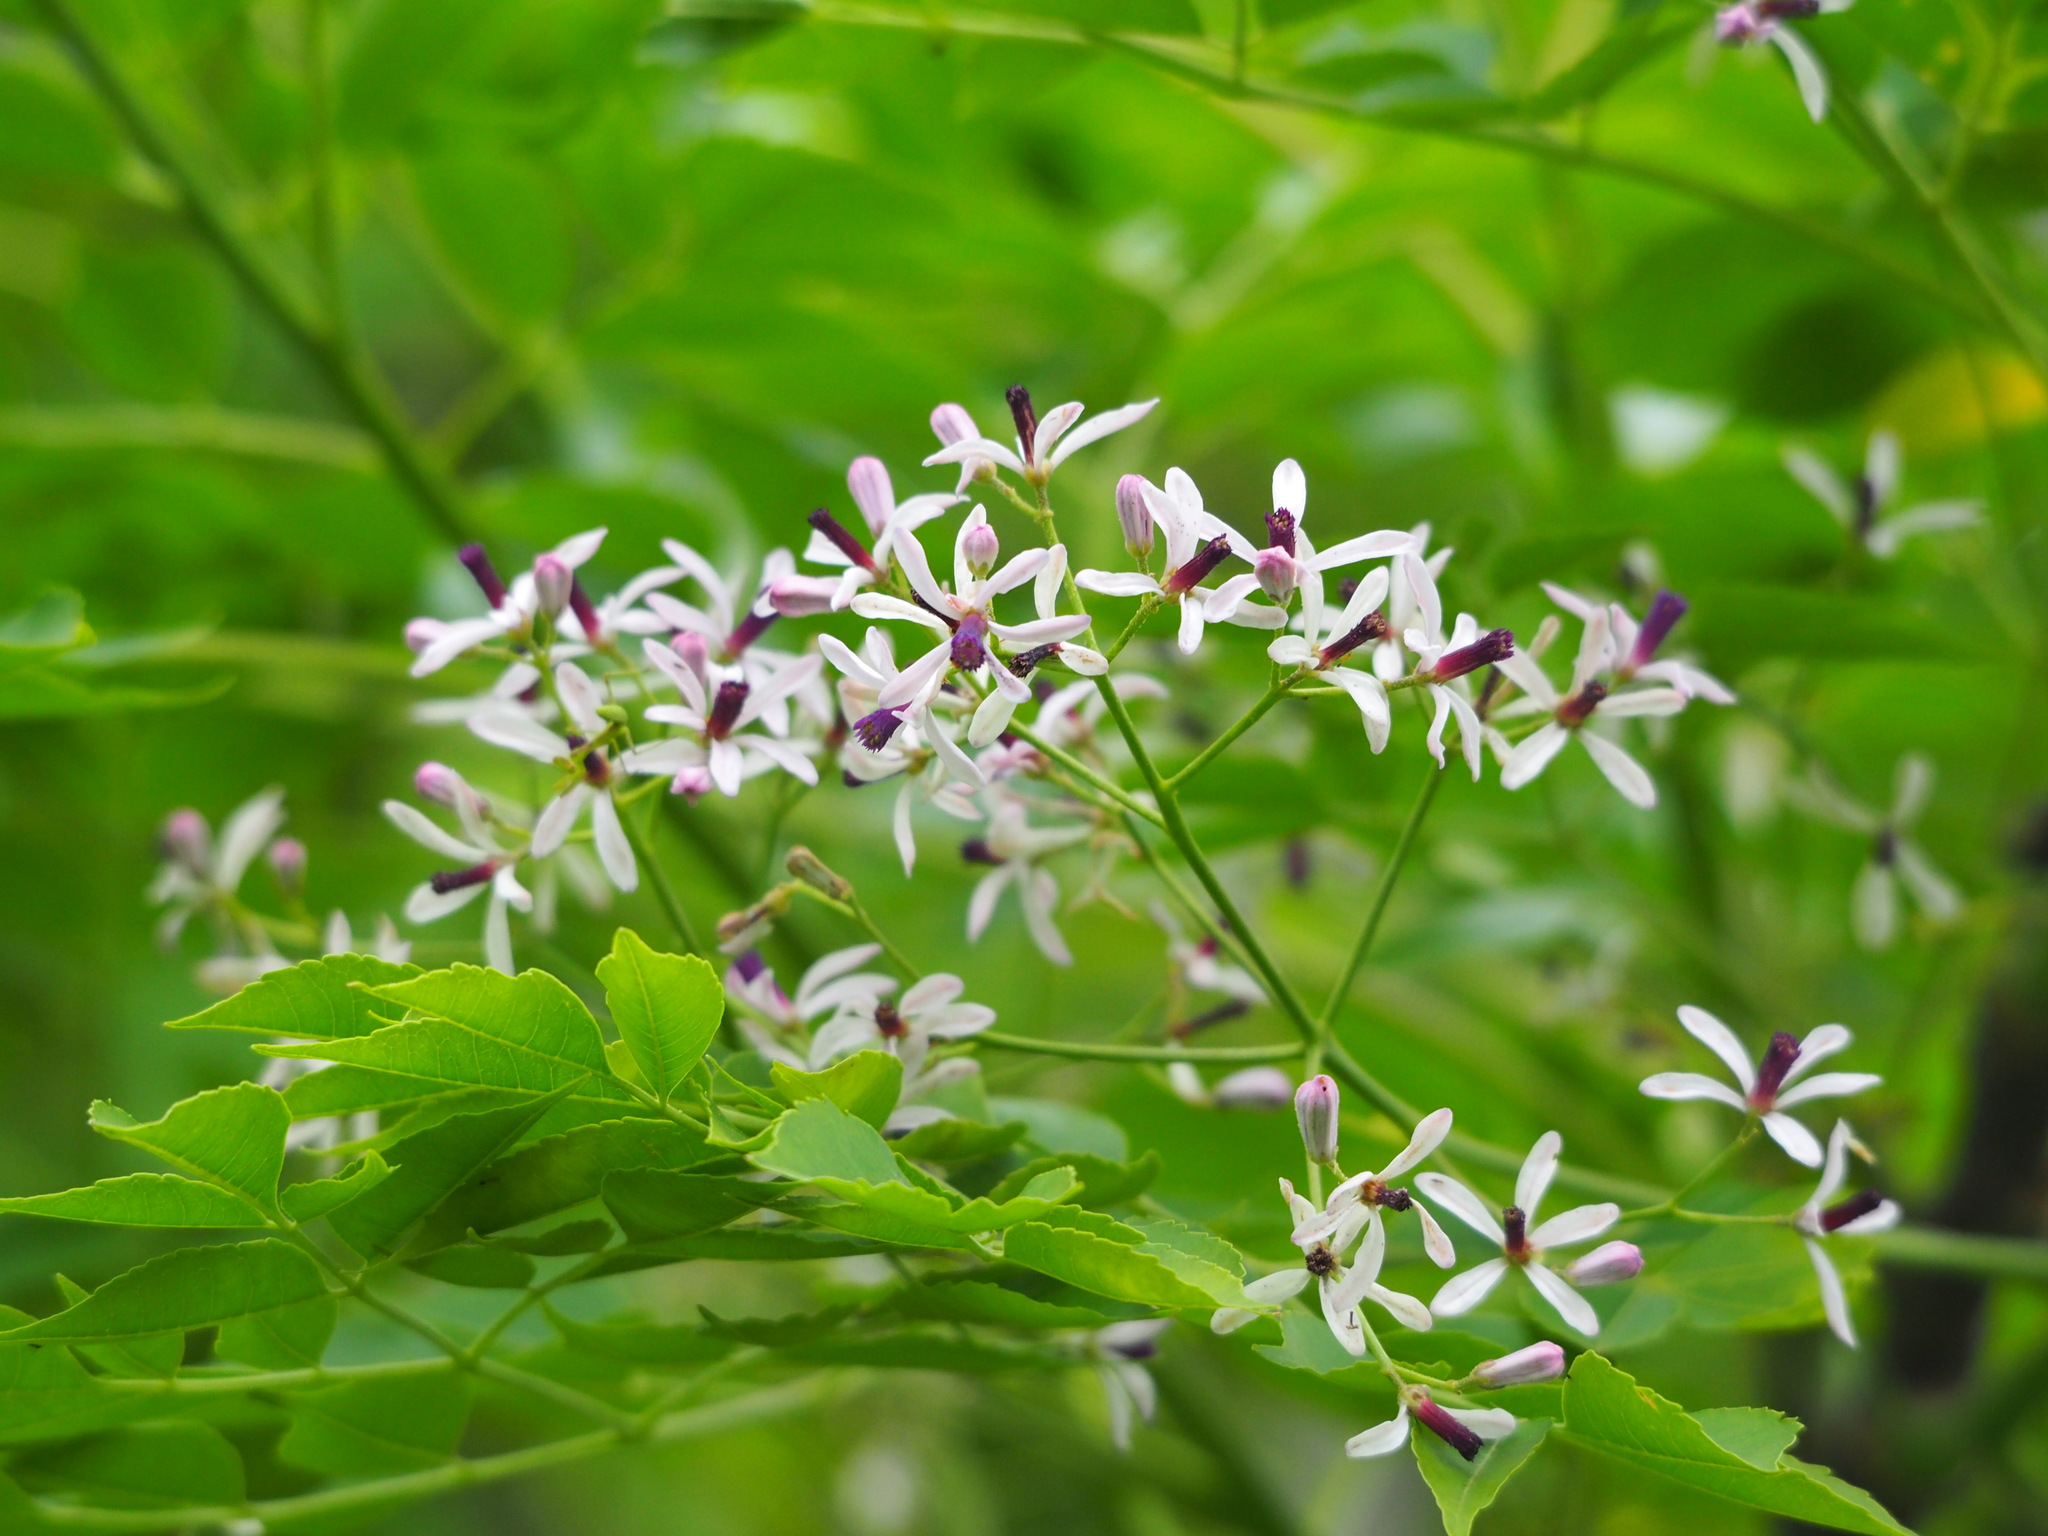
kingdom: Plantae
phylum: Tracheophyta
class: Magnoliopsida
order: Sapindales
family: Meliaceae
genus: Melia
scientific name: Melia azedarach
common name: Chinaberrytree
